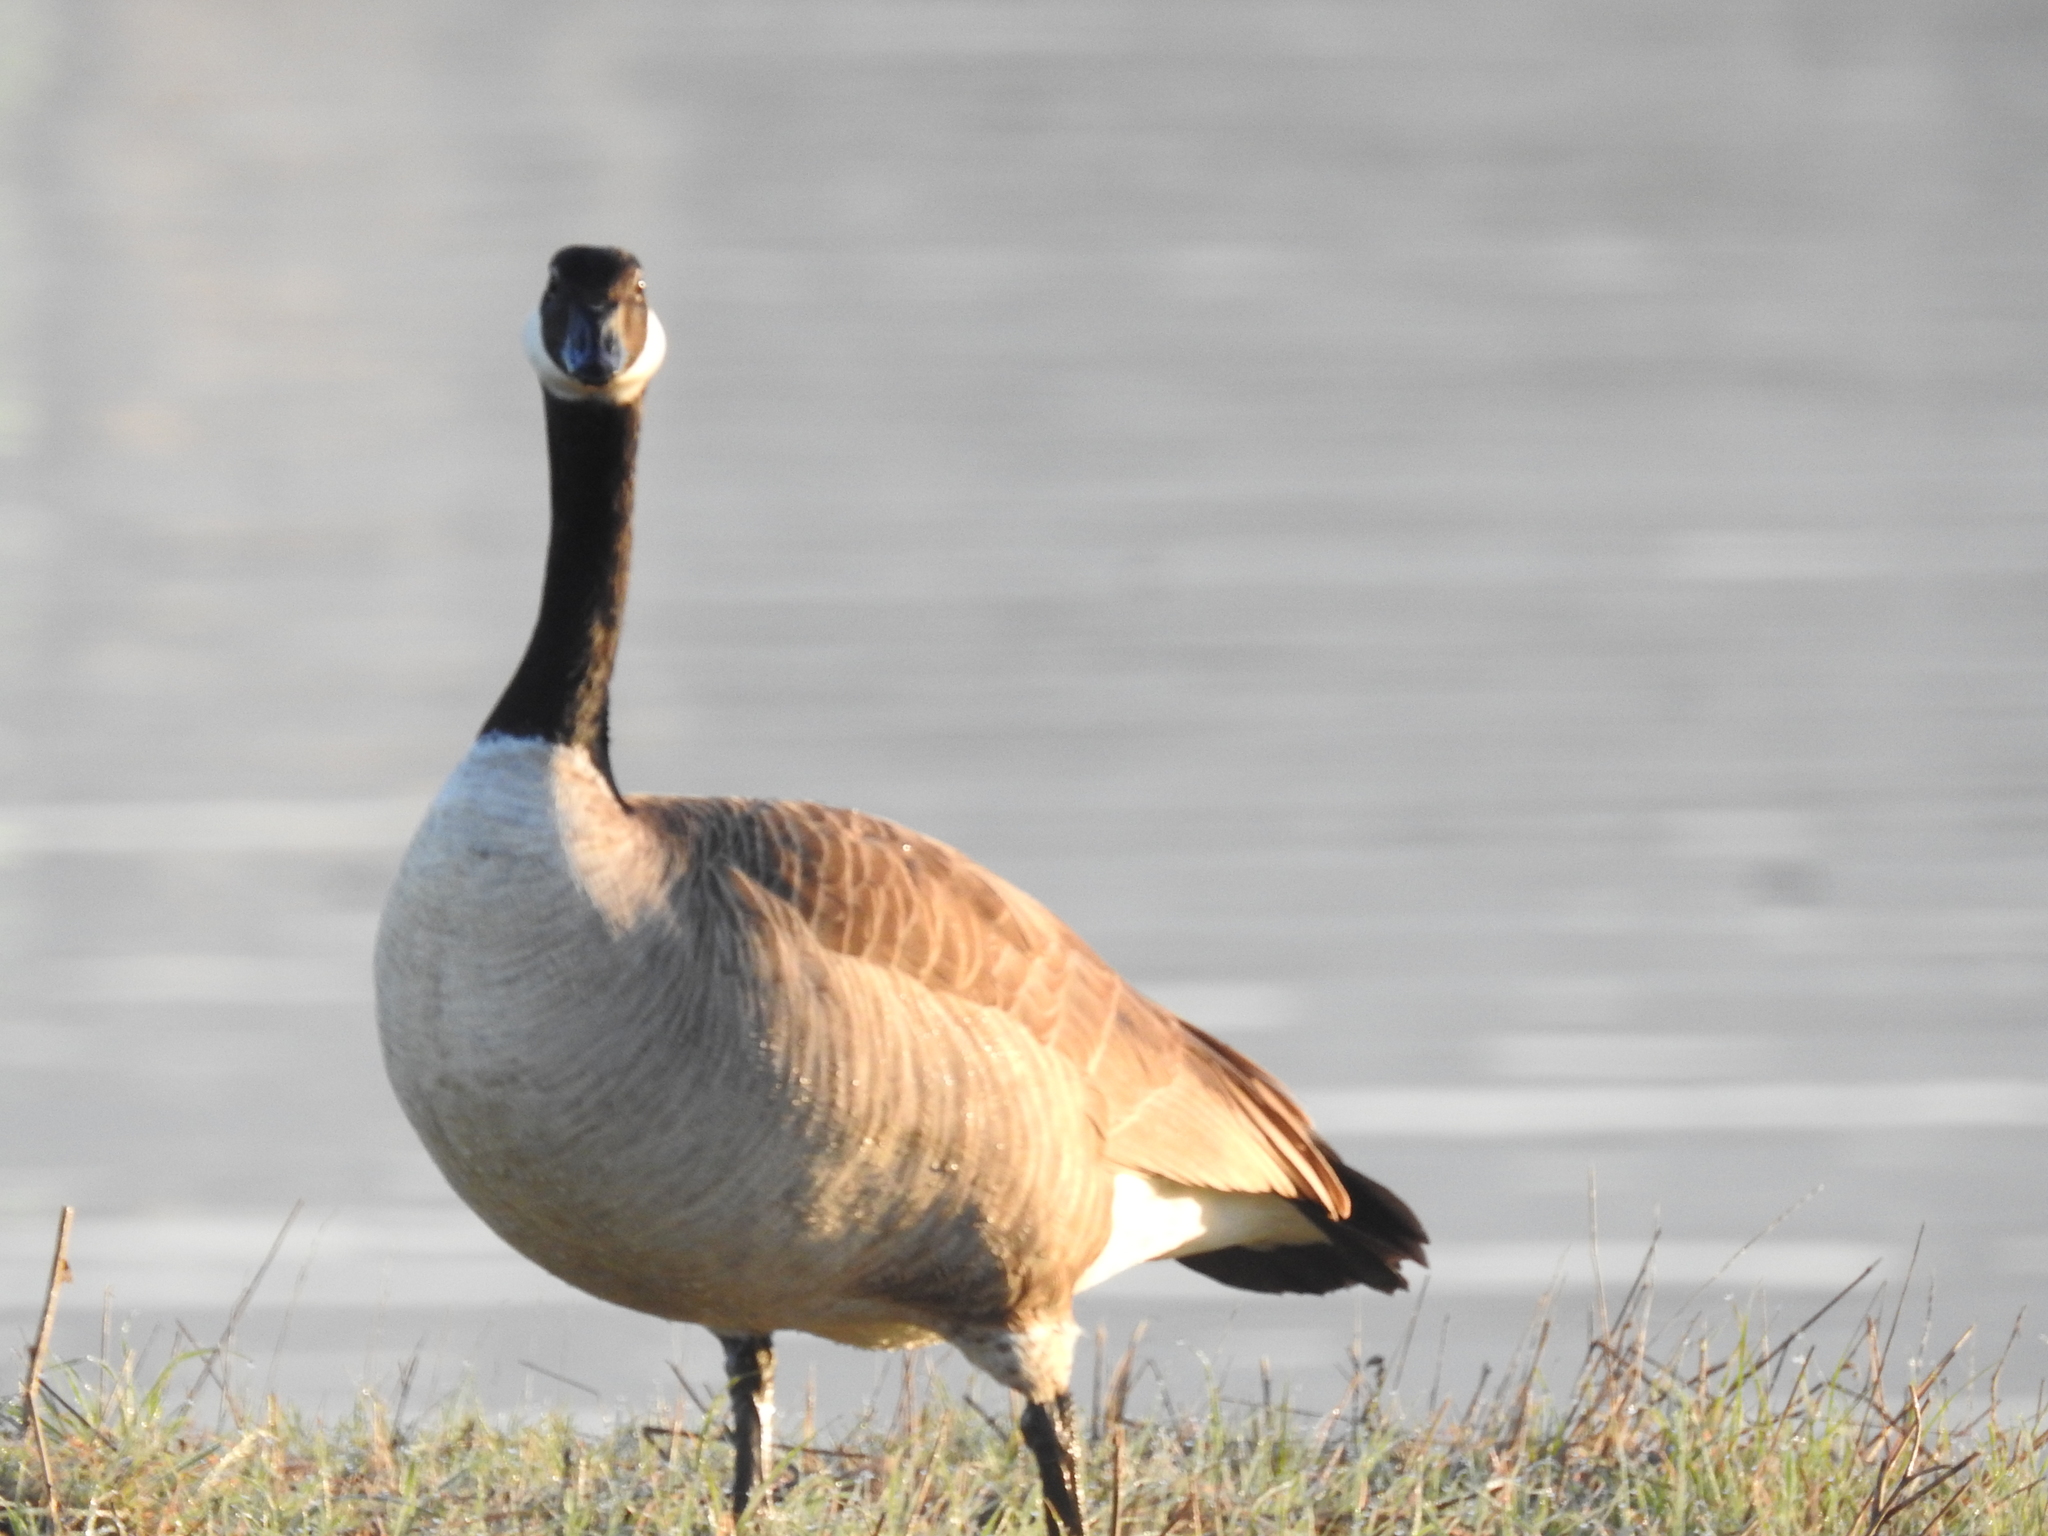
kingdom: Animalia
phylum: Chordata
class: Aves
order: Anseriformes
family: Anatidae
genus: Branta
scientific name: Branta canadensis
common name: Canada goose
